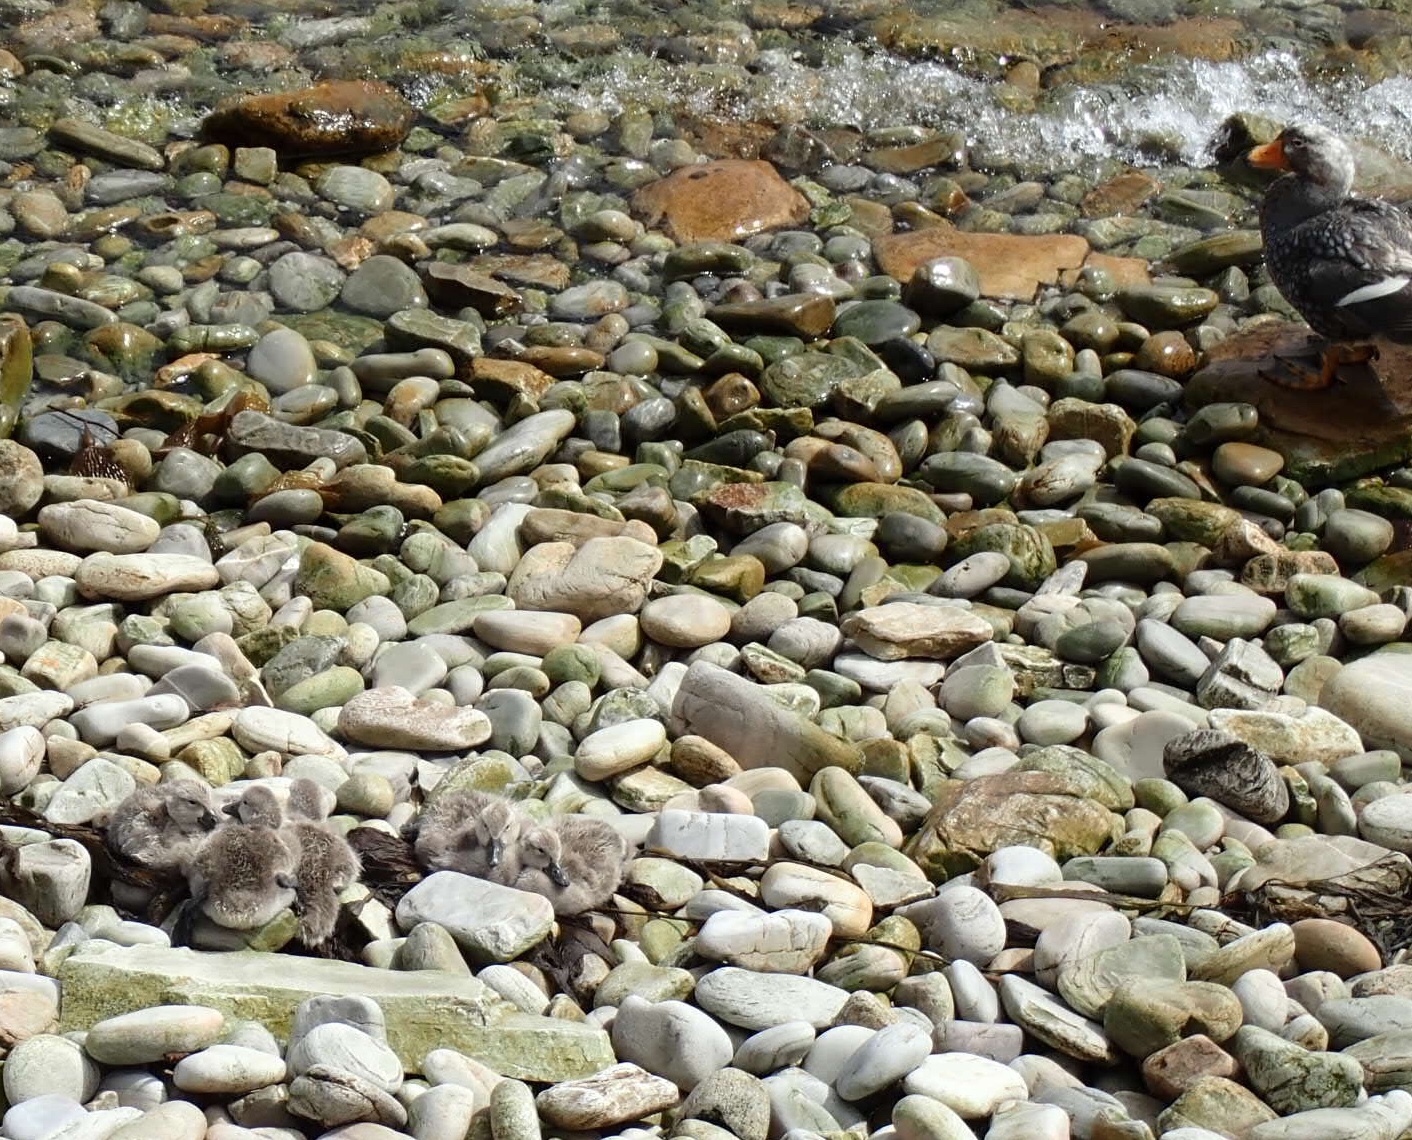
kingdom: Animalia
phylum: Chordata
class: Aves
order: Anseriformes
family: Anatidae
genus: Tachyeres
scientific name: Tachyeres brachypterus
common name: Falkland steamer duck
